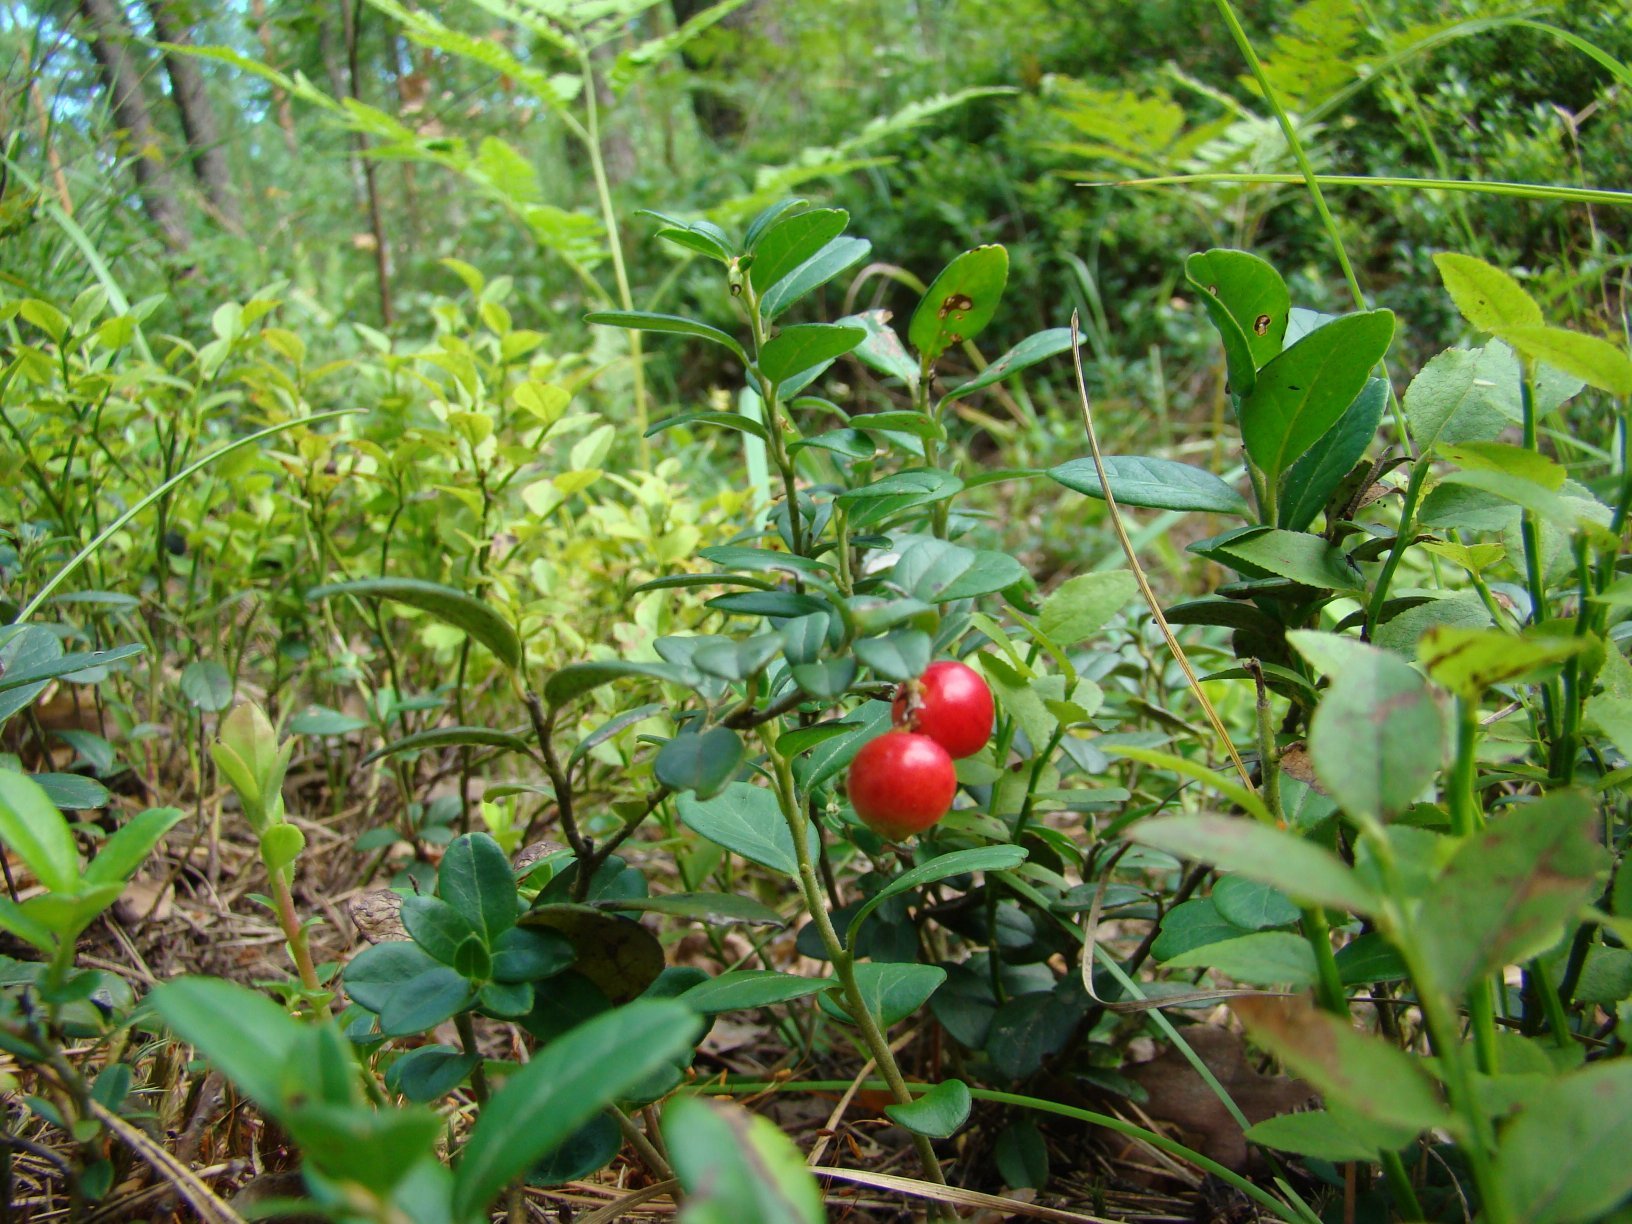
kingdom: Plantae
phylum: Tracheophyta
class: Magnoliopsida
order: Ericales
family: Ericaceae
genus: Vaccinium
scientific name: Vaccinium vitis-idaea
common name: Cowberry
